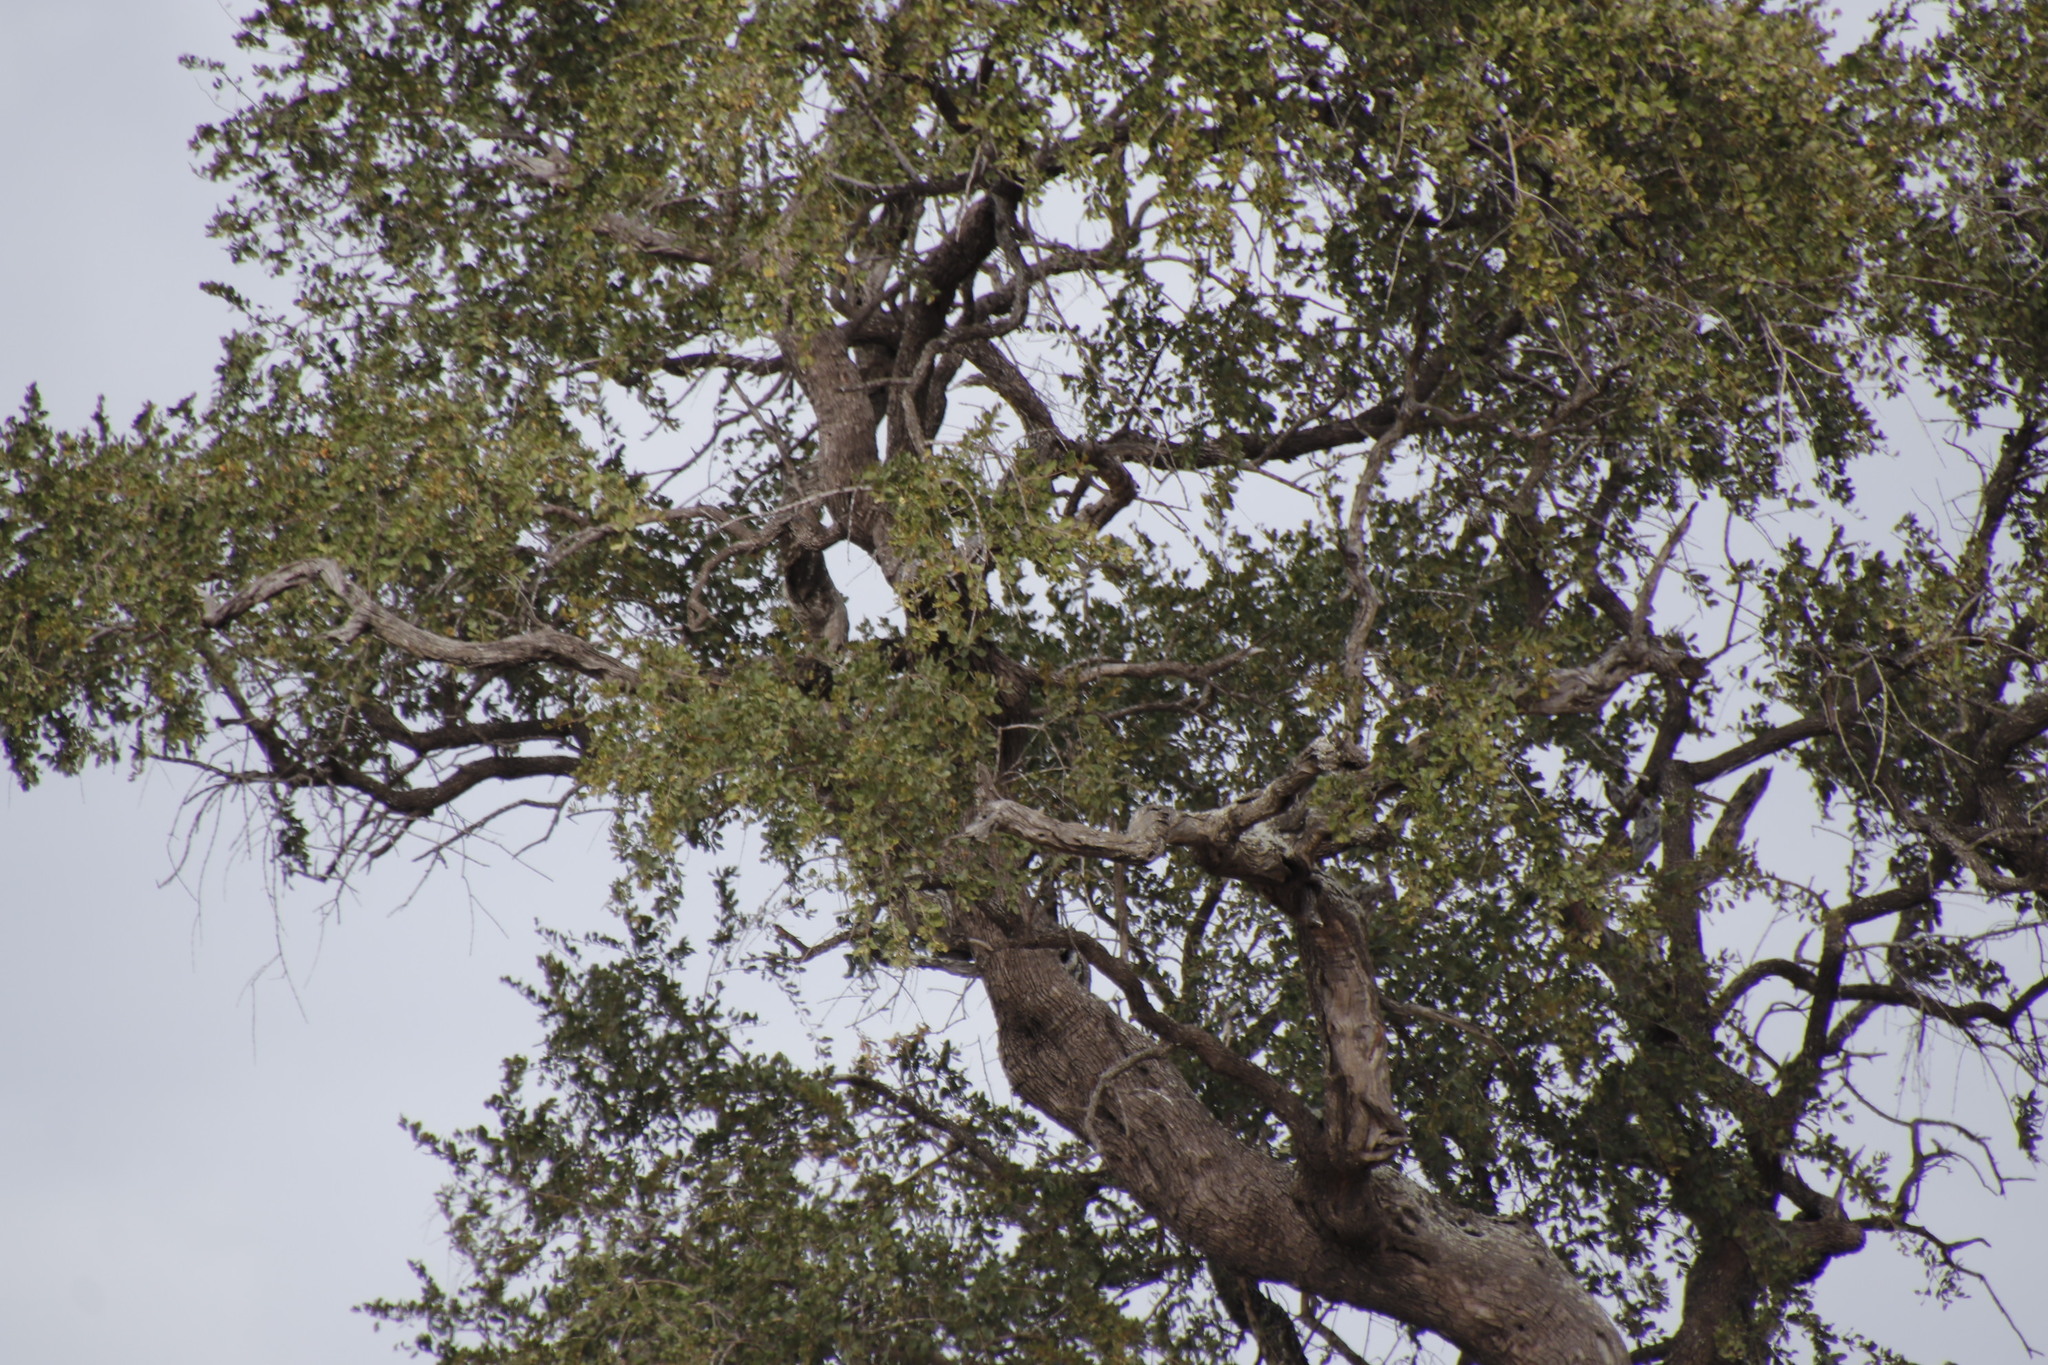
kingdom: Plantae
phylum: Tracheophyta
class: Magnoliopsida
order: Myrtales
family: Combretaceae
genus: Combretum
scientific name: Combretum imberbe
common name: Leadwood
